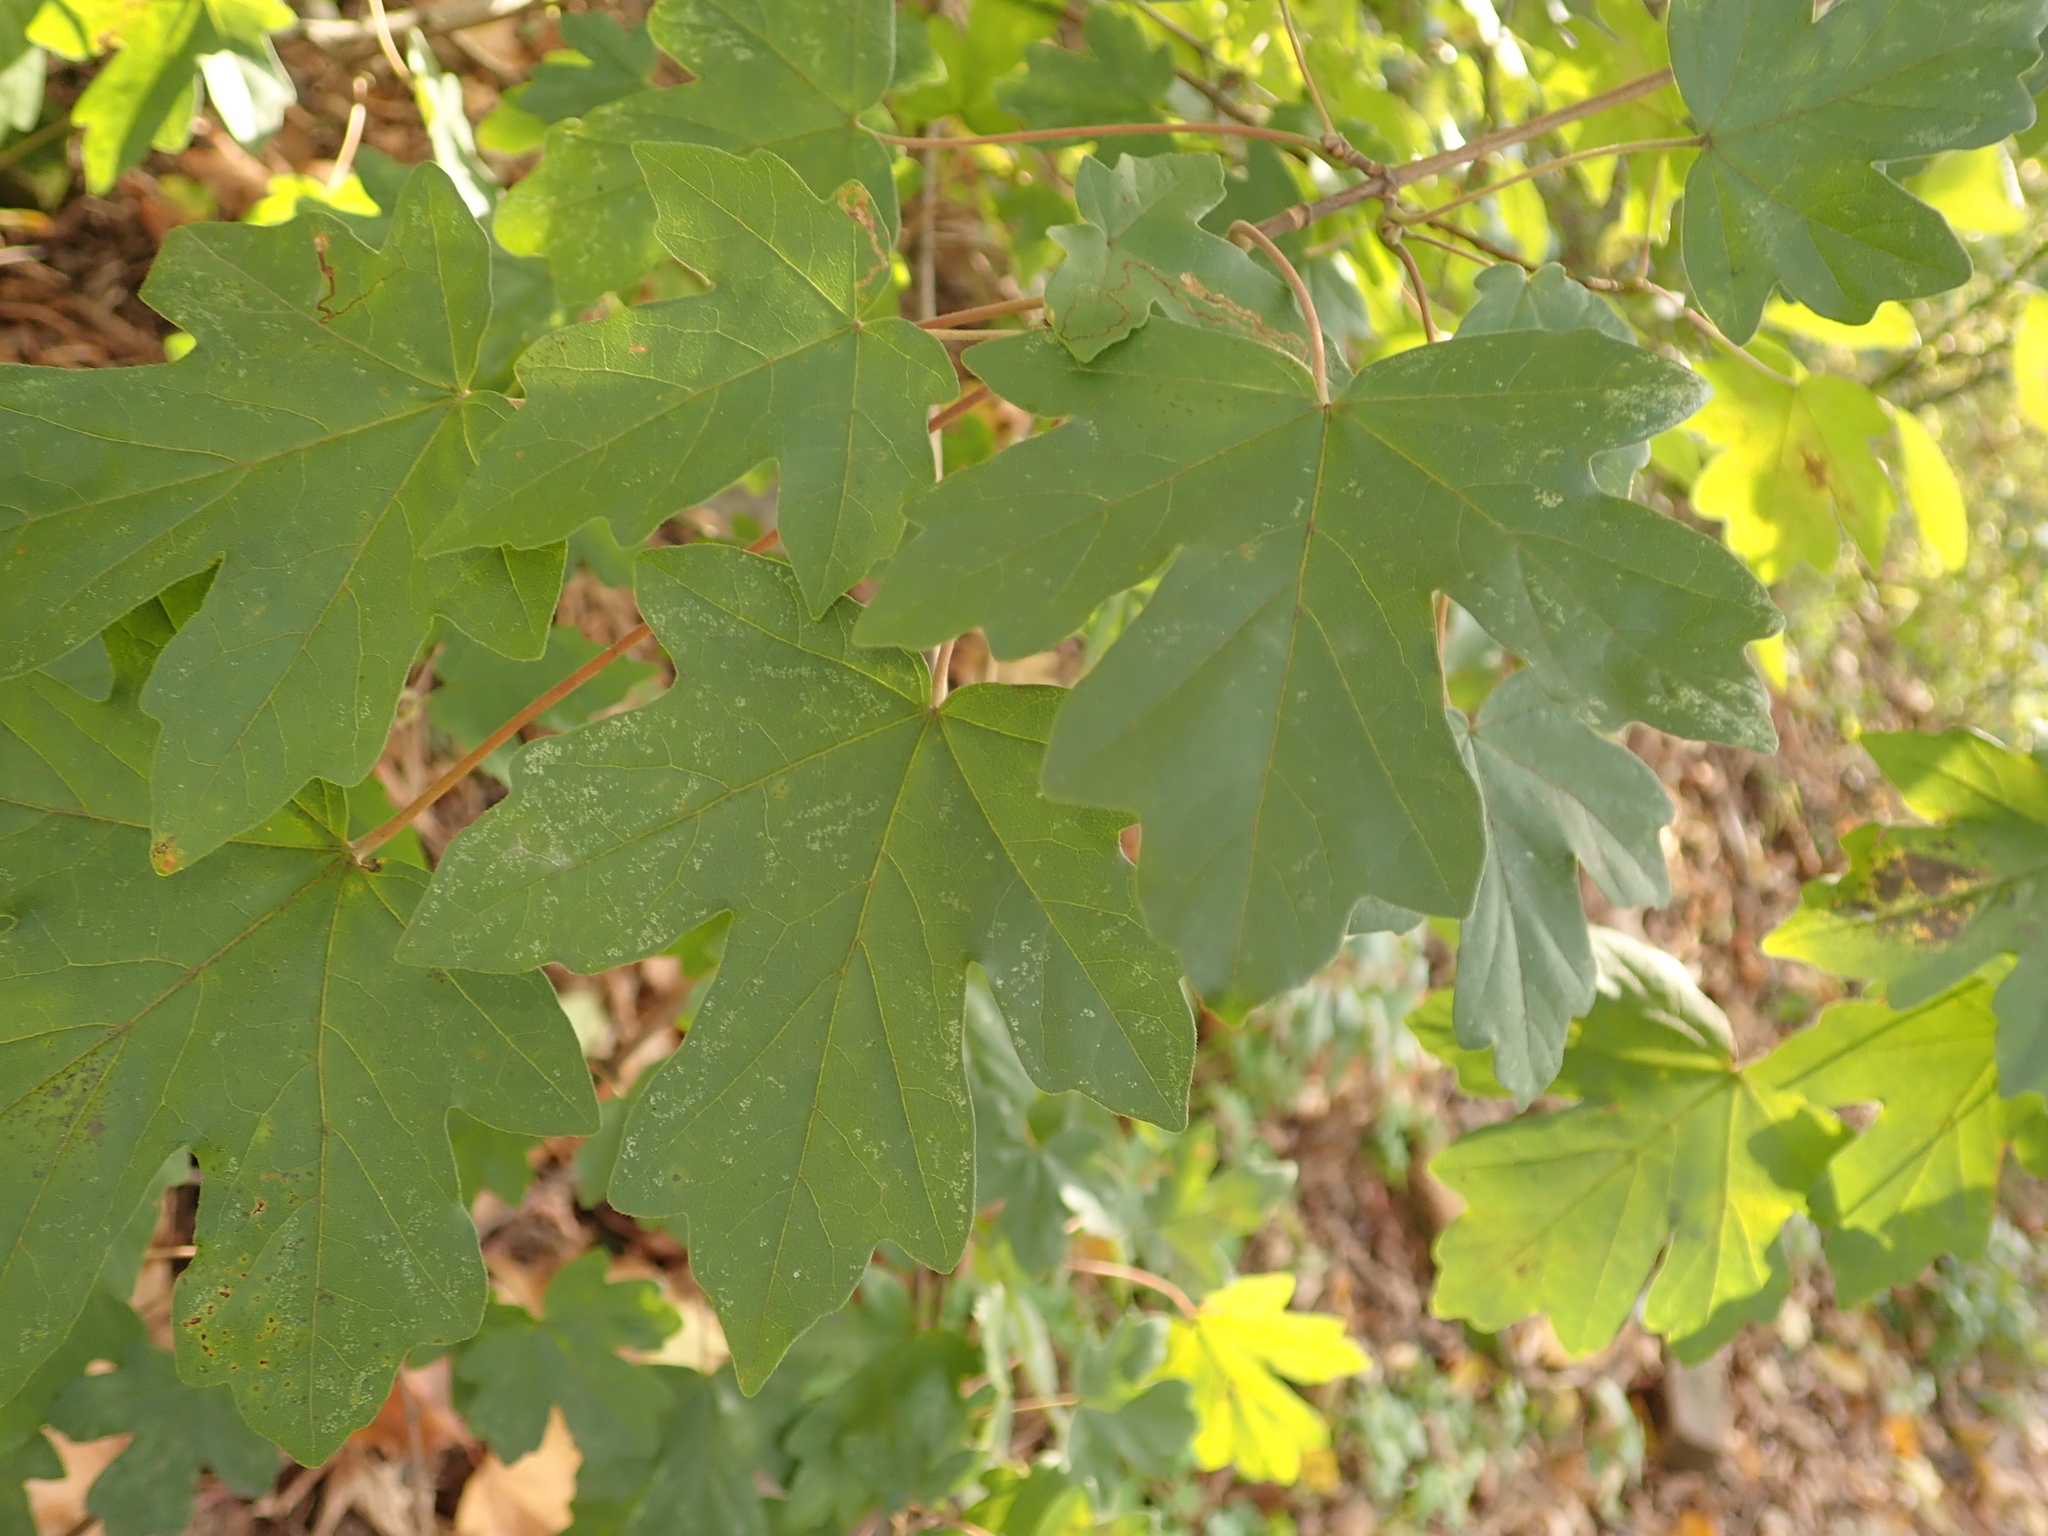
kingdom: Plantae
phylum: Tracheophyta
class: Magnoliopsida
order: Sapindales
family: Sapindaceae
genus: Acer
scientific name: Acer campestre
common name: Field maple
